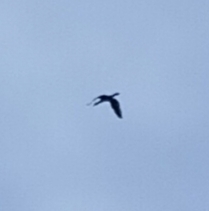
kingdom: Animalia
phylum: Chordata
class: Aves
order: Suliformes
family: Phalacrocoracidae
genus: Phalacrocorax
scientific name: Phalacrocorax carbo
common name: Great cormorant
